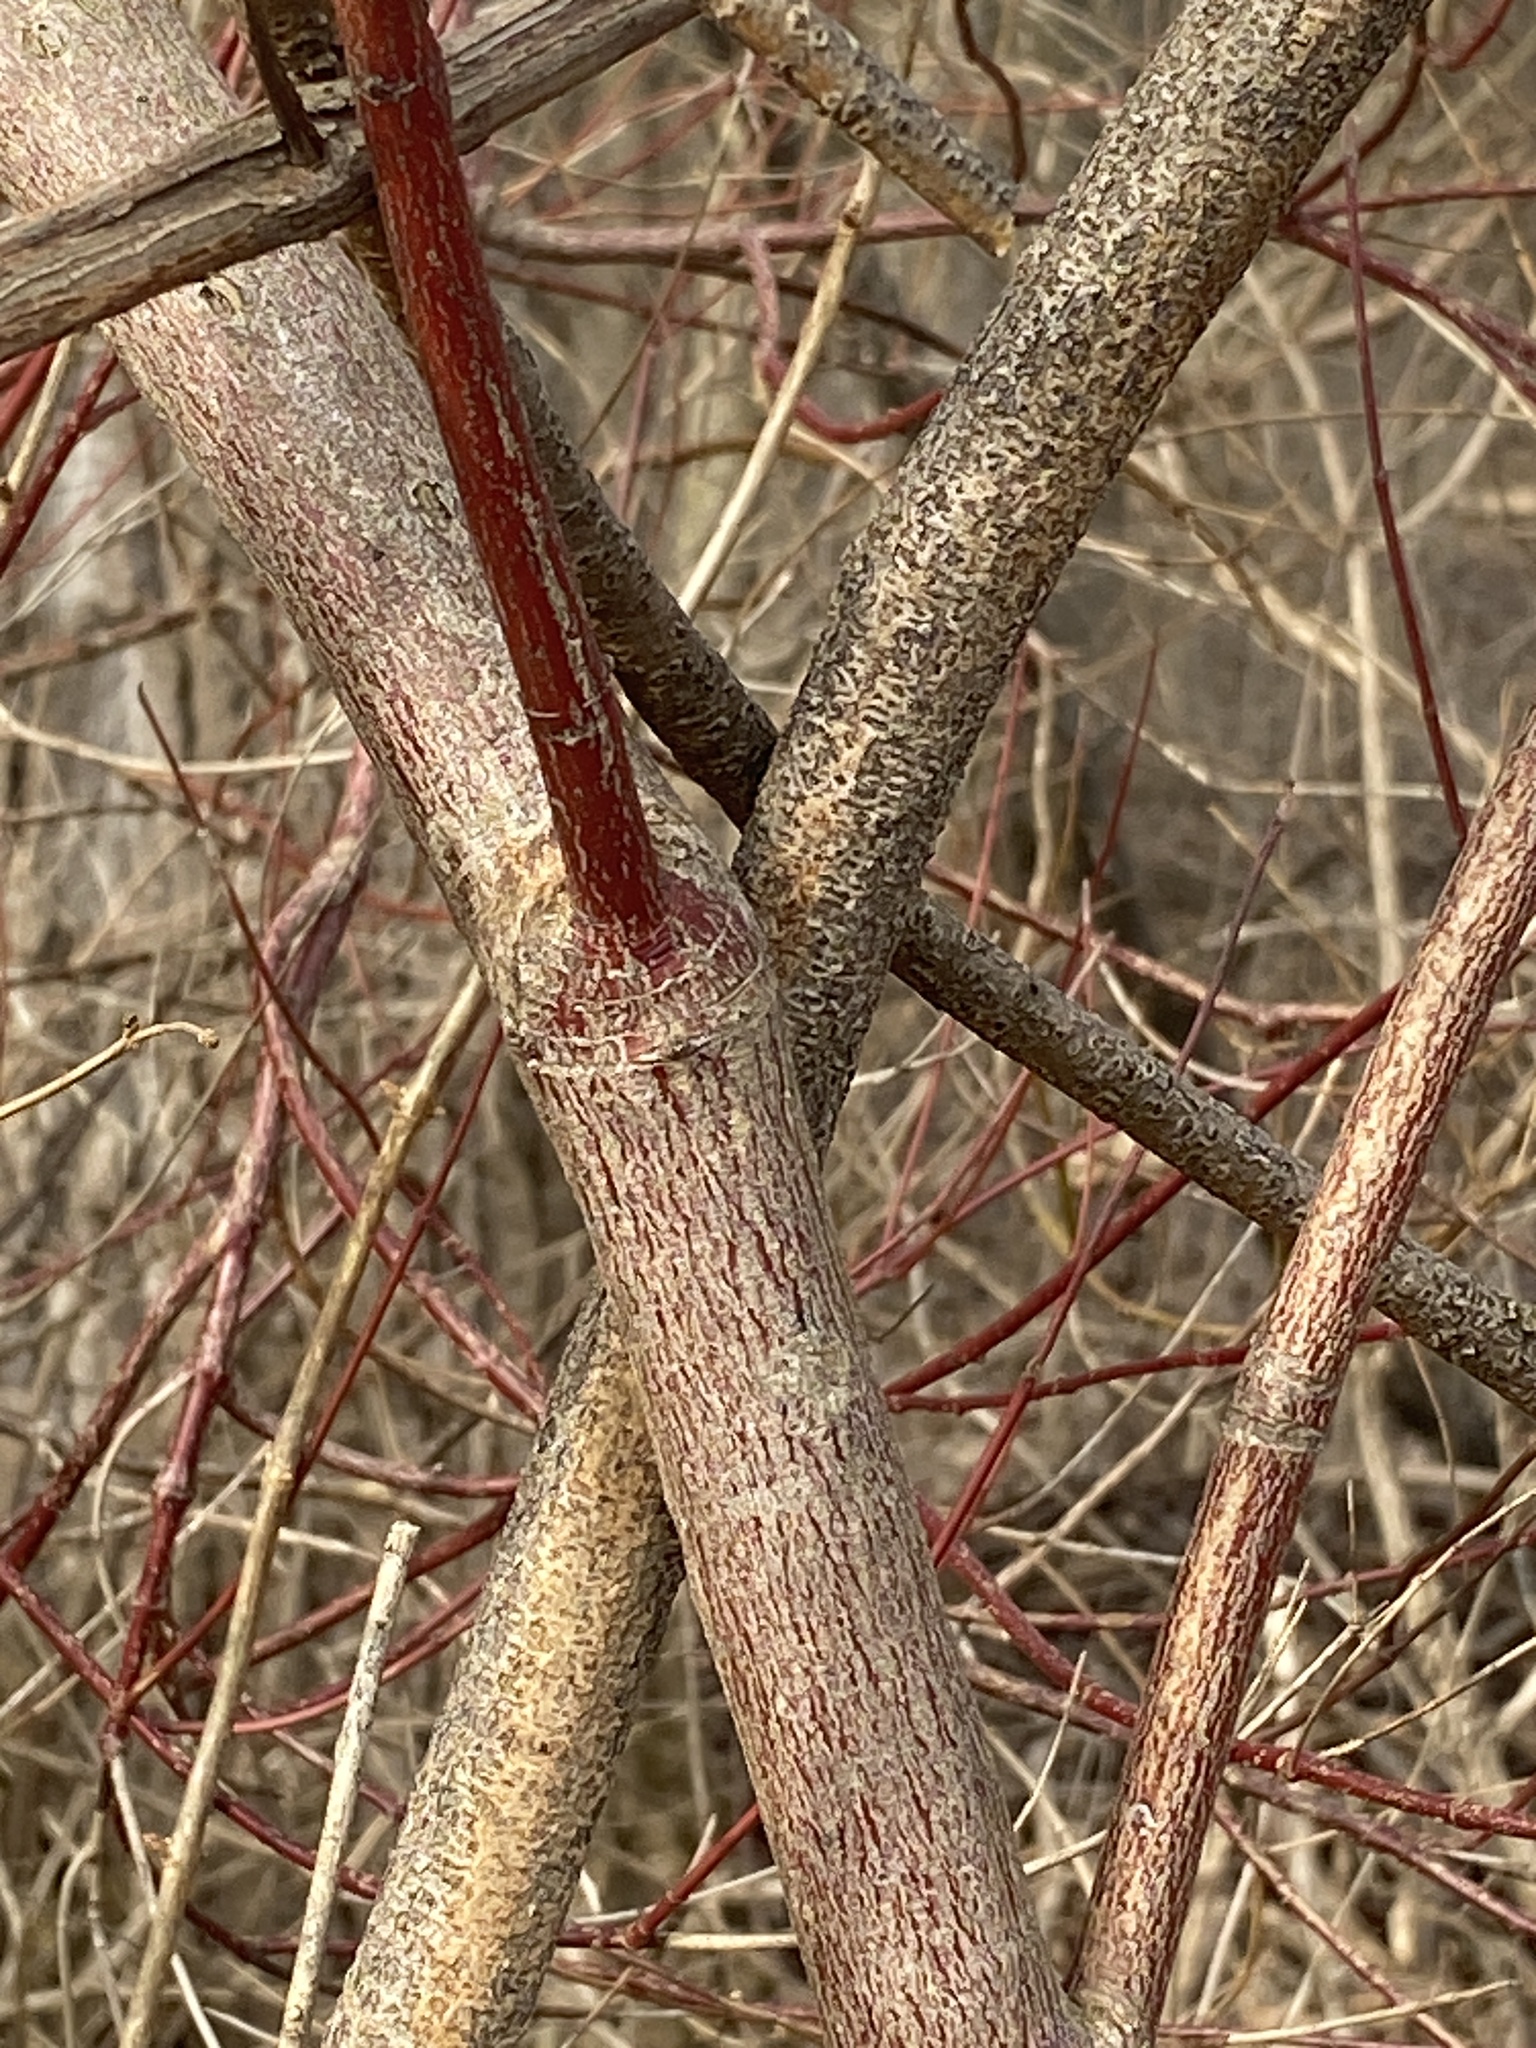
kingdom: Plantae
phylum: Tracheophyta
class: Magnoliopsida
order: Cornales
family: Cornaceae
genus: Cornus
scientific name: Cornus amomum
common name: Silky dogwood
